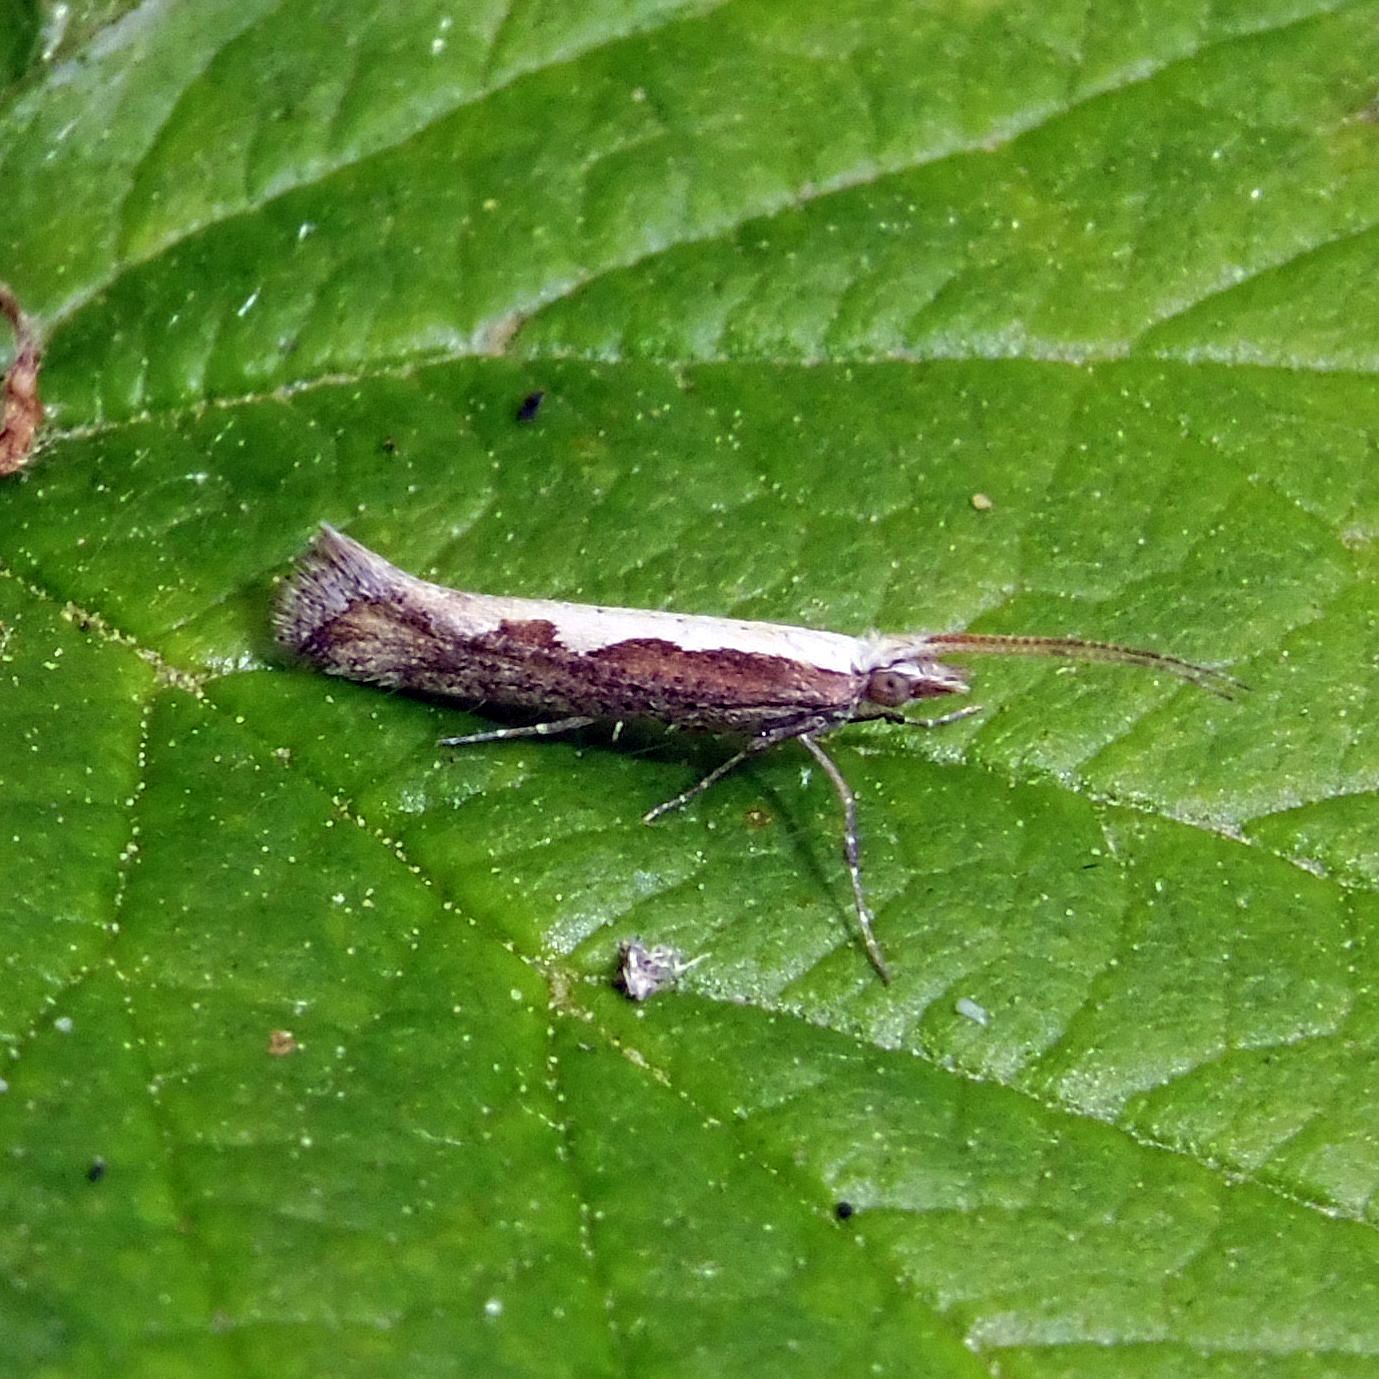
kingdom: Animalia
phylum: Arthropoda
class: Insecta
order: Lepidoptera
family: Plutellidae
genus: Plutella
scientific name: Plutella xylostella
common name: Diamond-back moth
